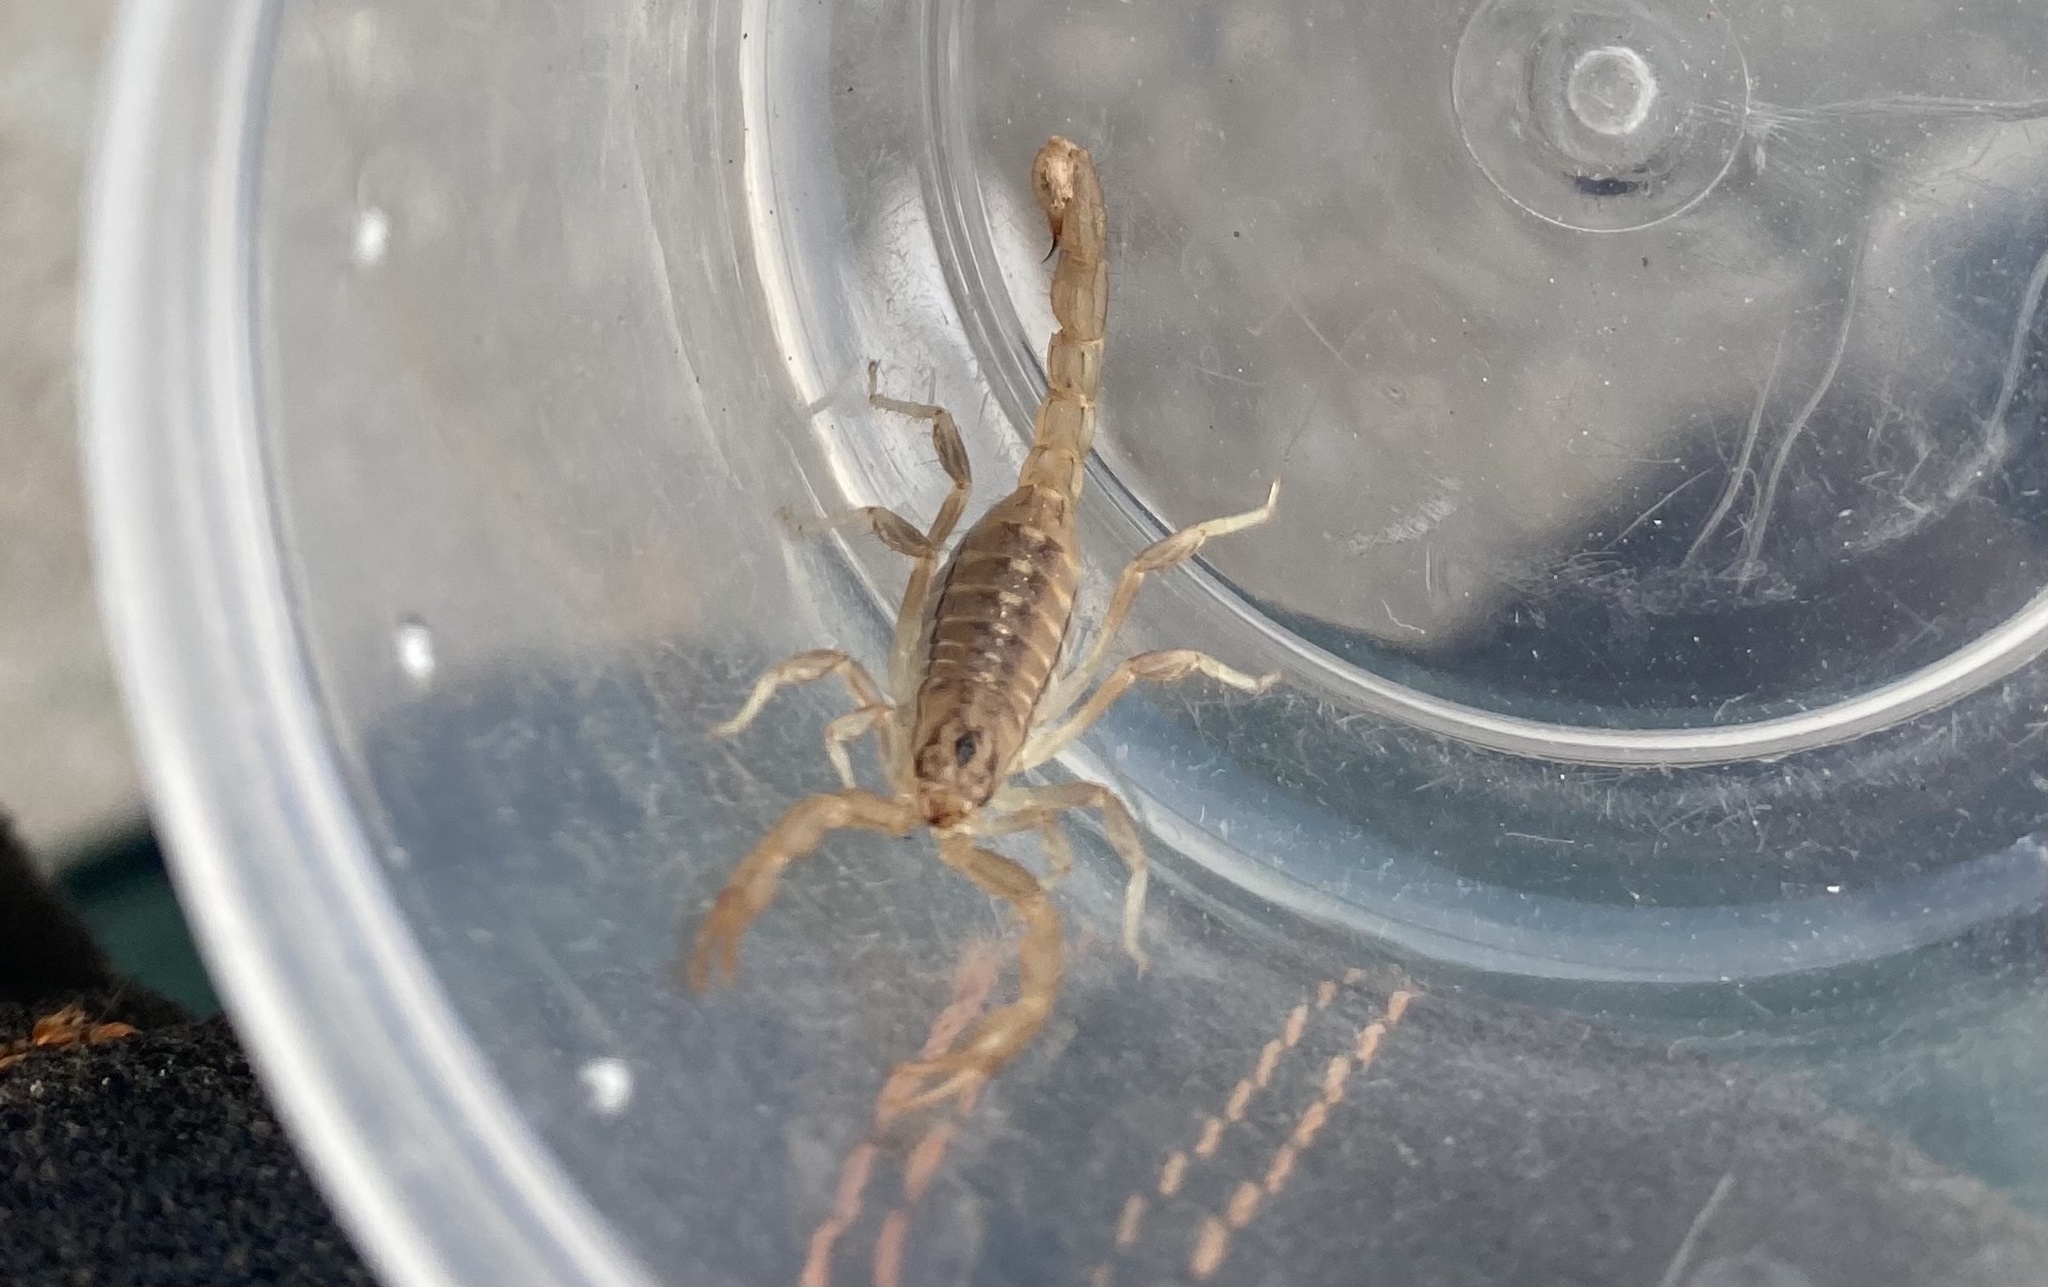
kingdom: Animalia
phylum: Arthropoda
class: Arachnida
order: Scorpiones
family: Vaejovidae
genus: Paravaejovis
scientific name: Paravaejovis spinigerus
